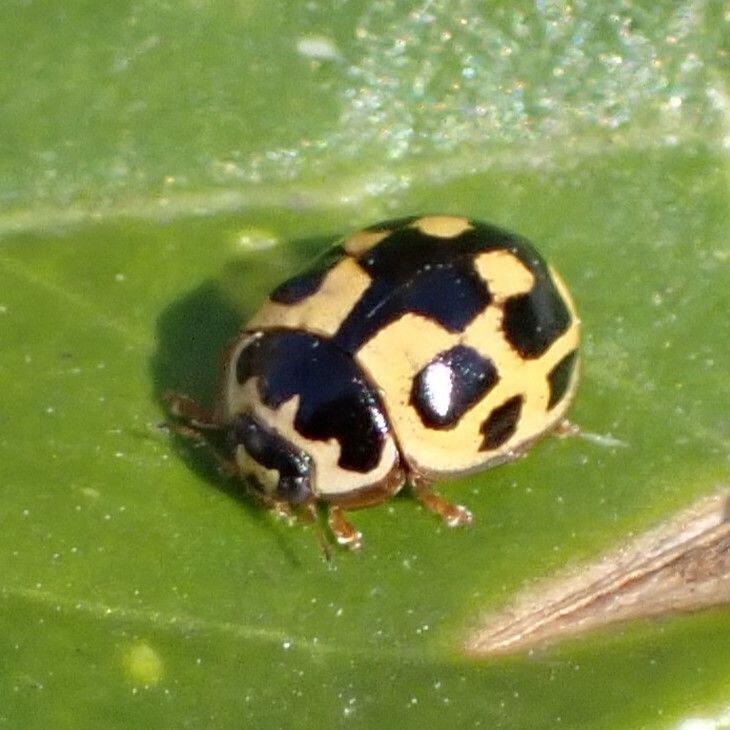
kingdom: Animalia
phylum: Arthropoda
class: Insecta
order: Coleoptera
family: Coccinellidae
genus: Propylaea
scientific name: Propylaea quatuordecimpunctata
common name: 14-spotted ladybird beetle
